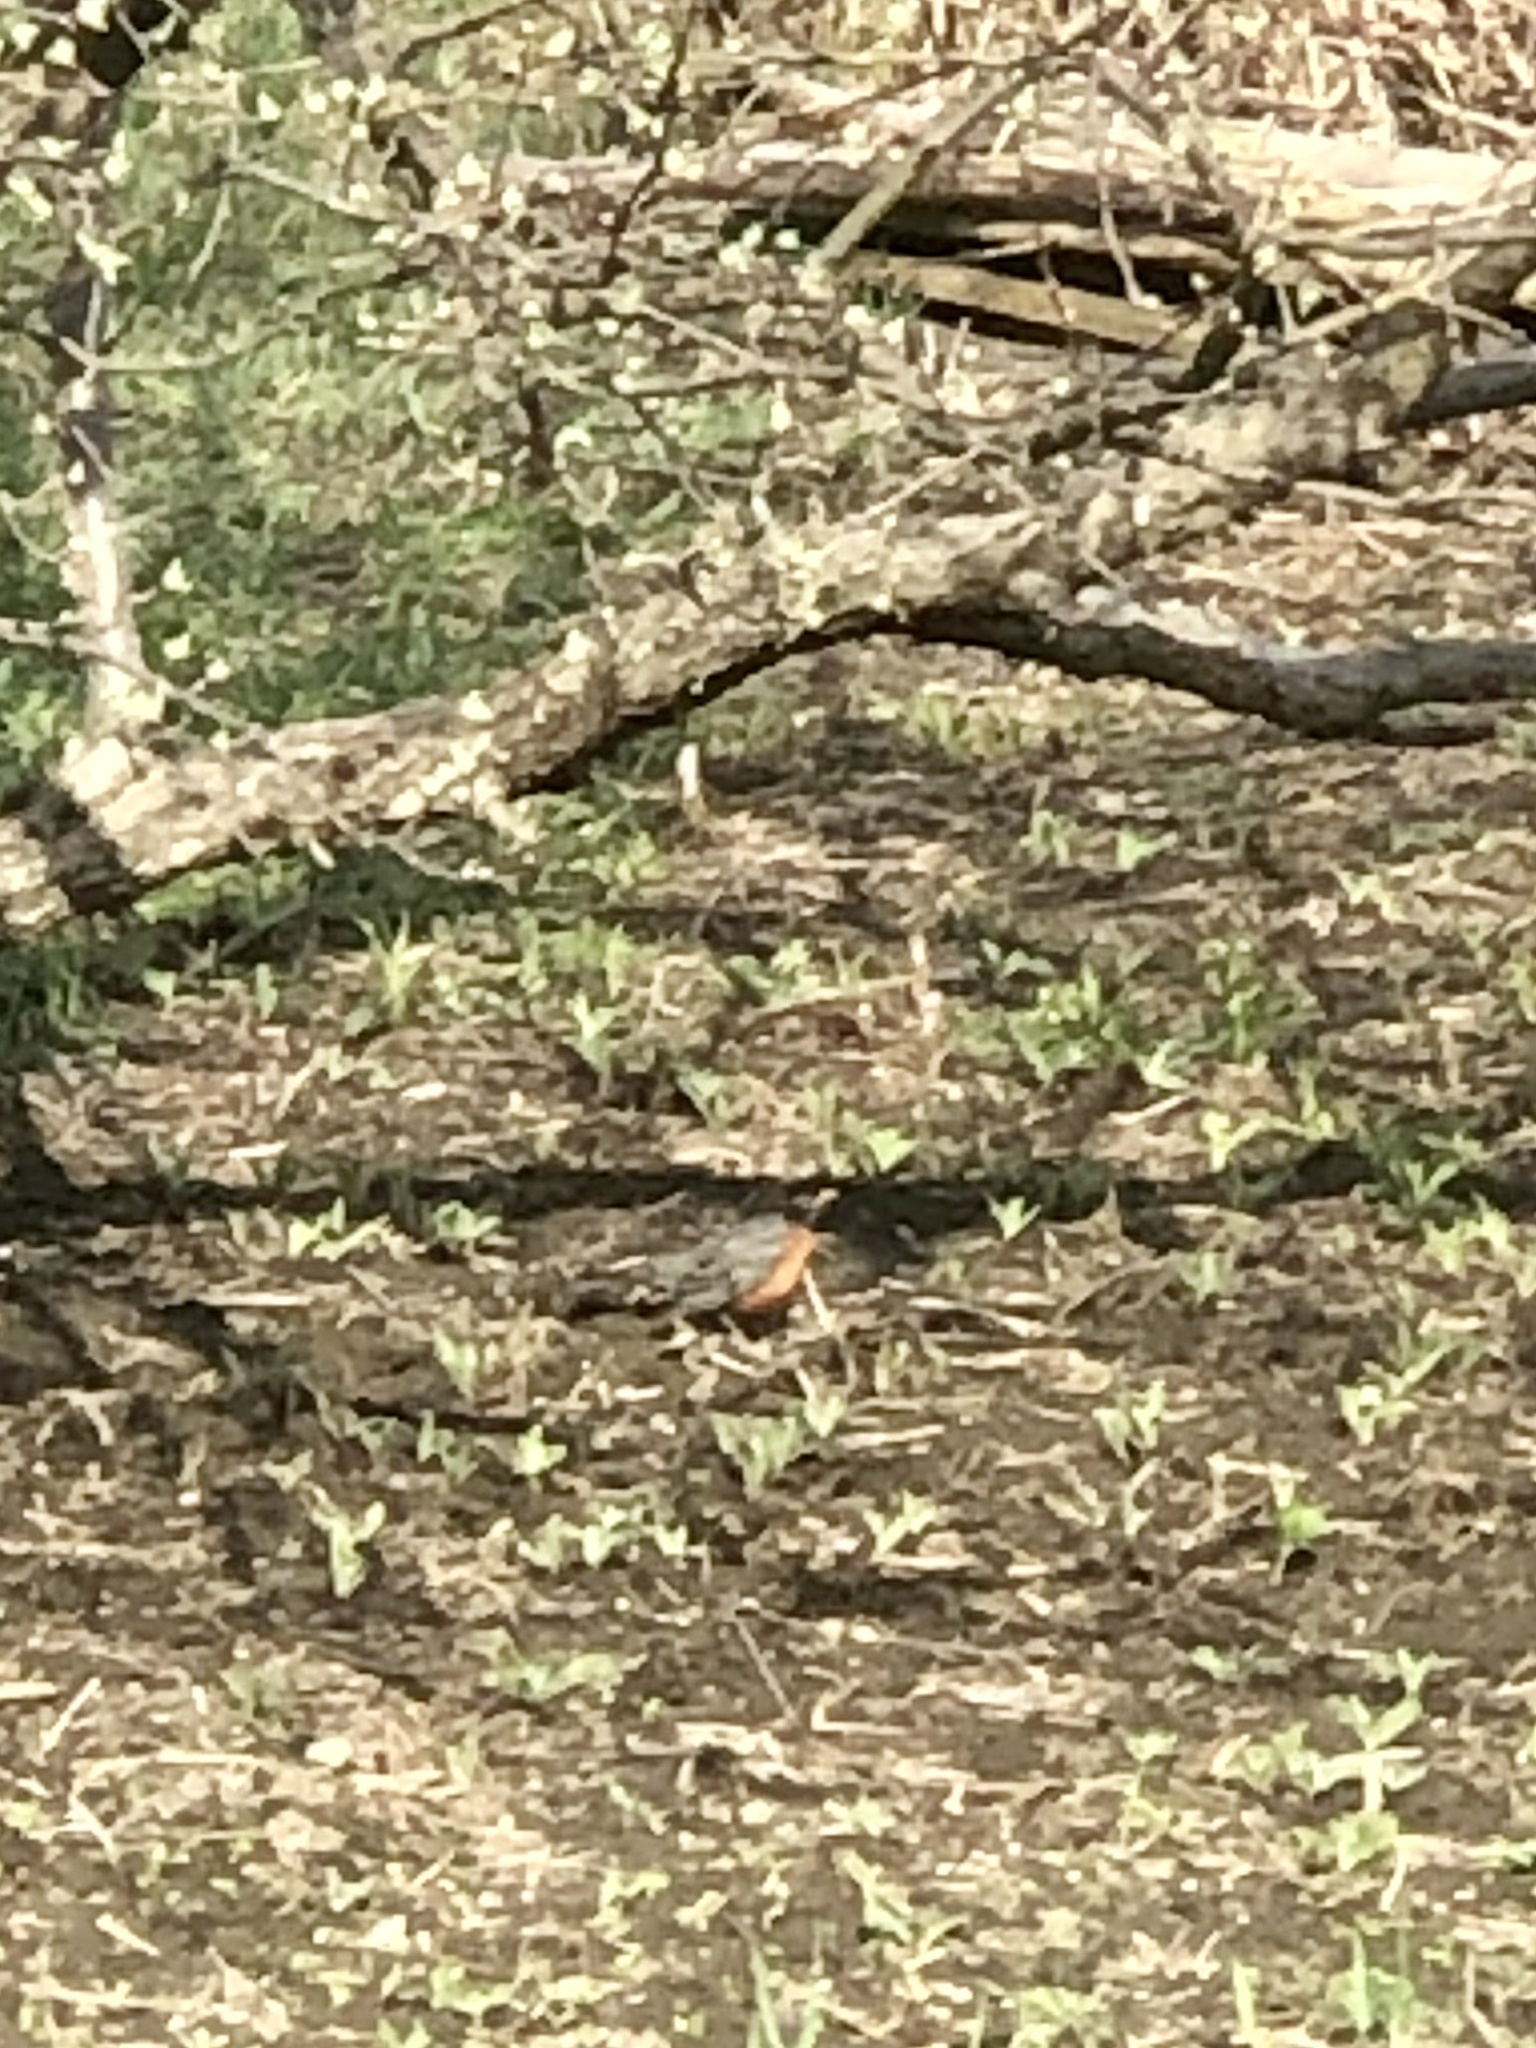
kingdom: Animalia
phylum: Chordata
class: Aves
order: Passeriformes
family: Turdidae
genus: Turdus
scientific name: Turdus migratorius
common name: American robin
